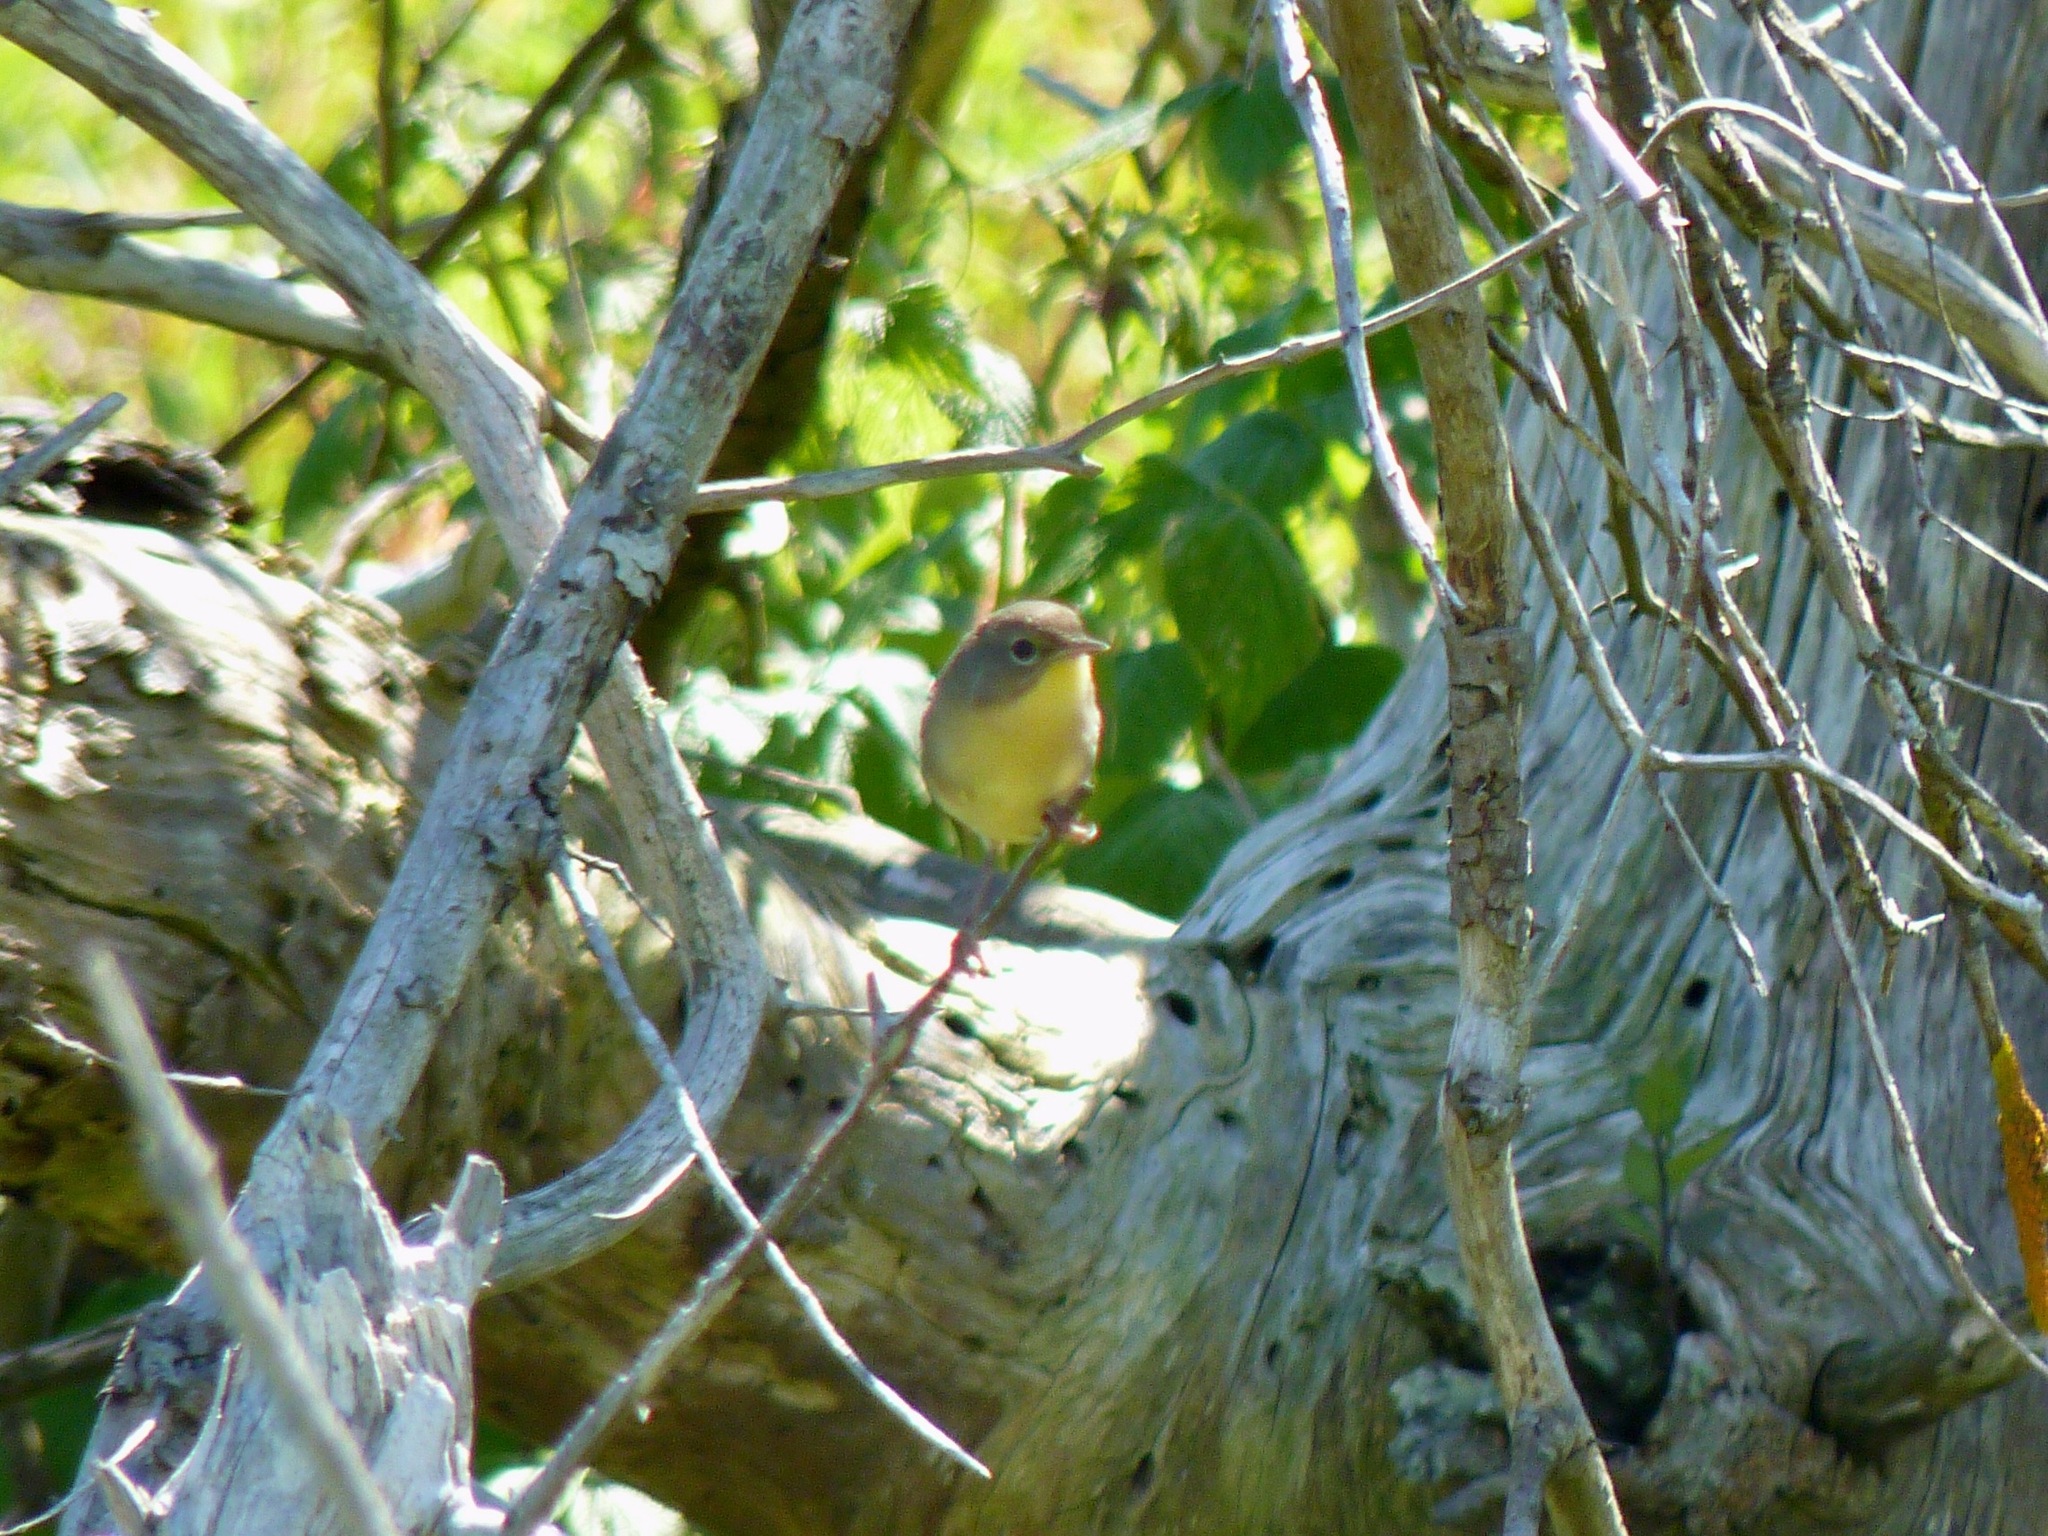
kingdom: Animalia
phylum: Chordata
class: Aves
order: Passeriformes
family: Parulidae
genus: Geothlypis
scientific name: Geothlypis trichas
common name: Common yellowthroat
